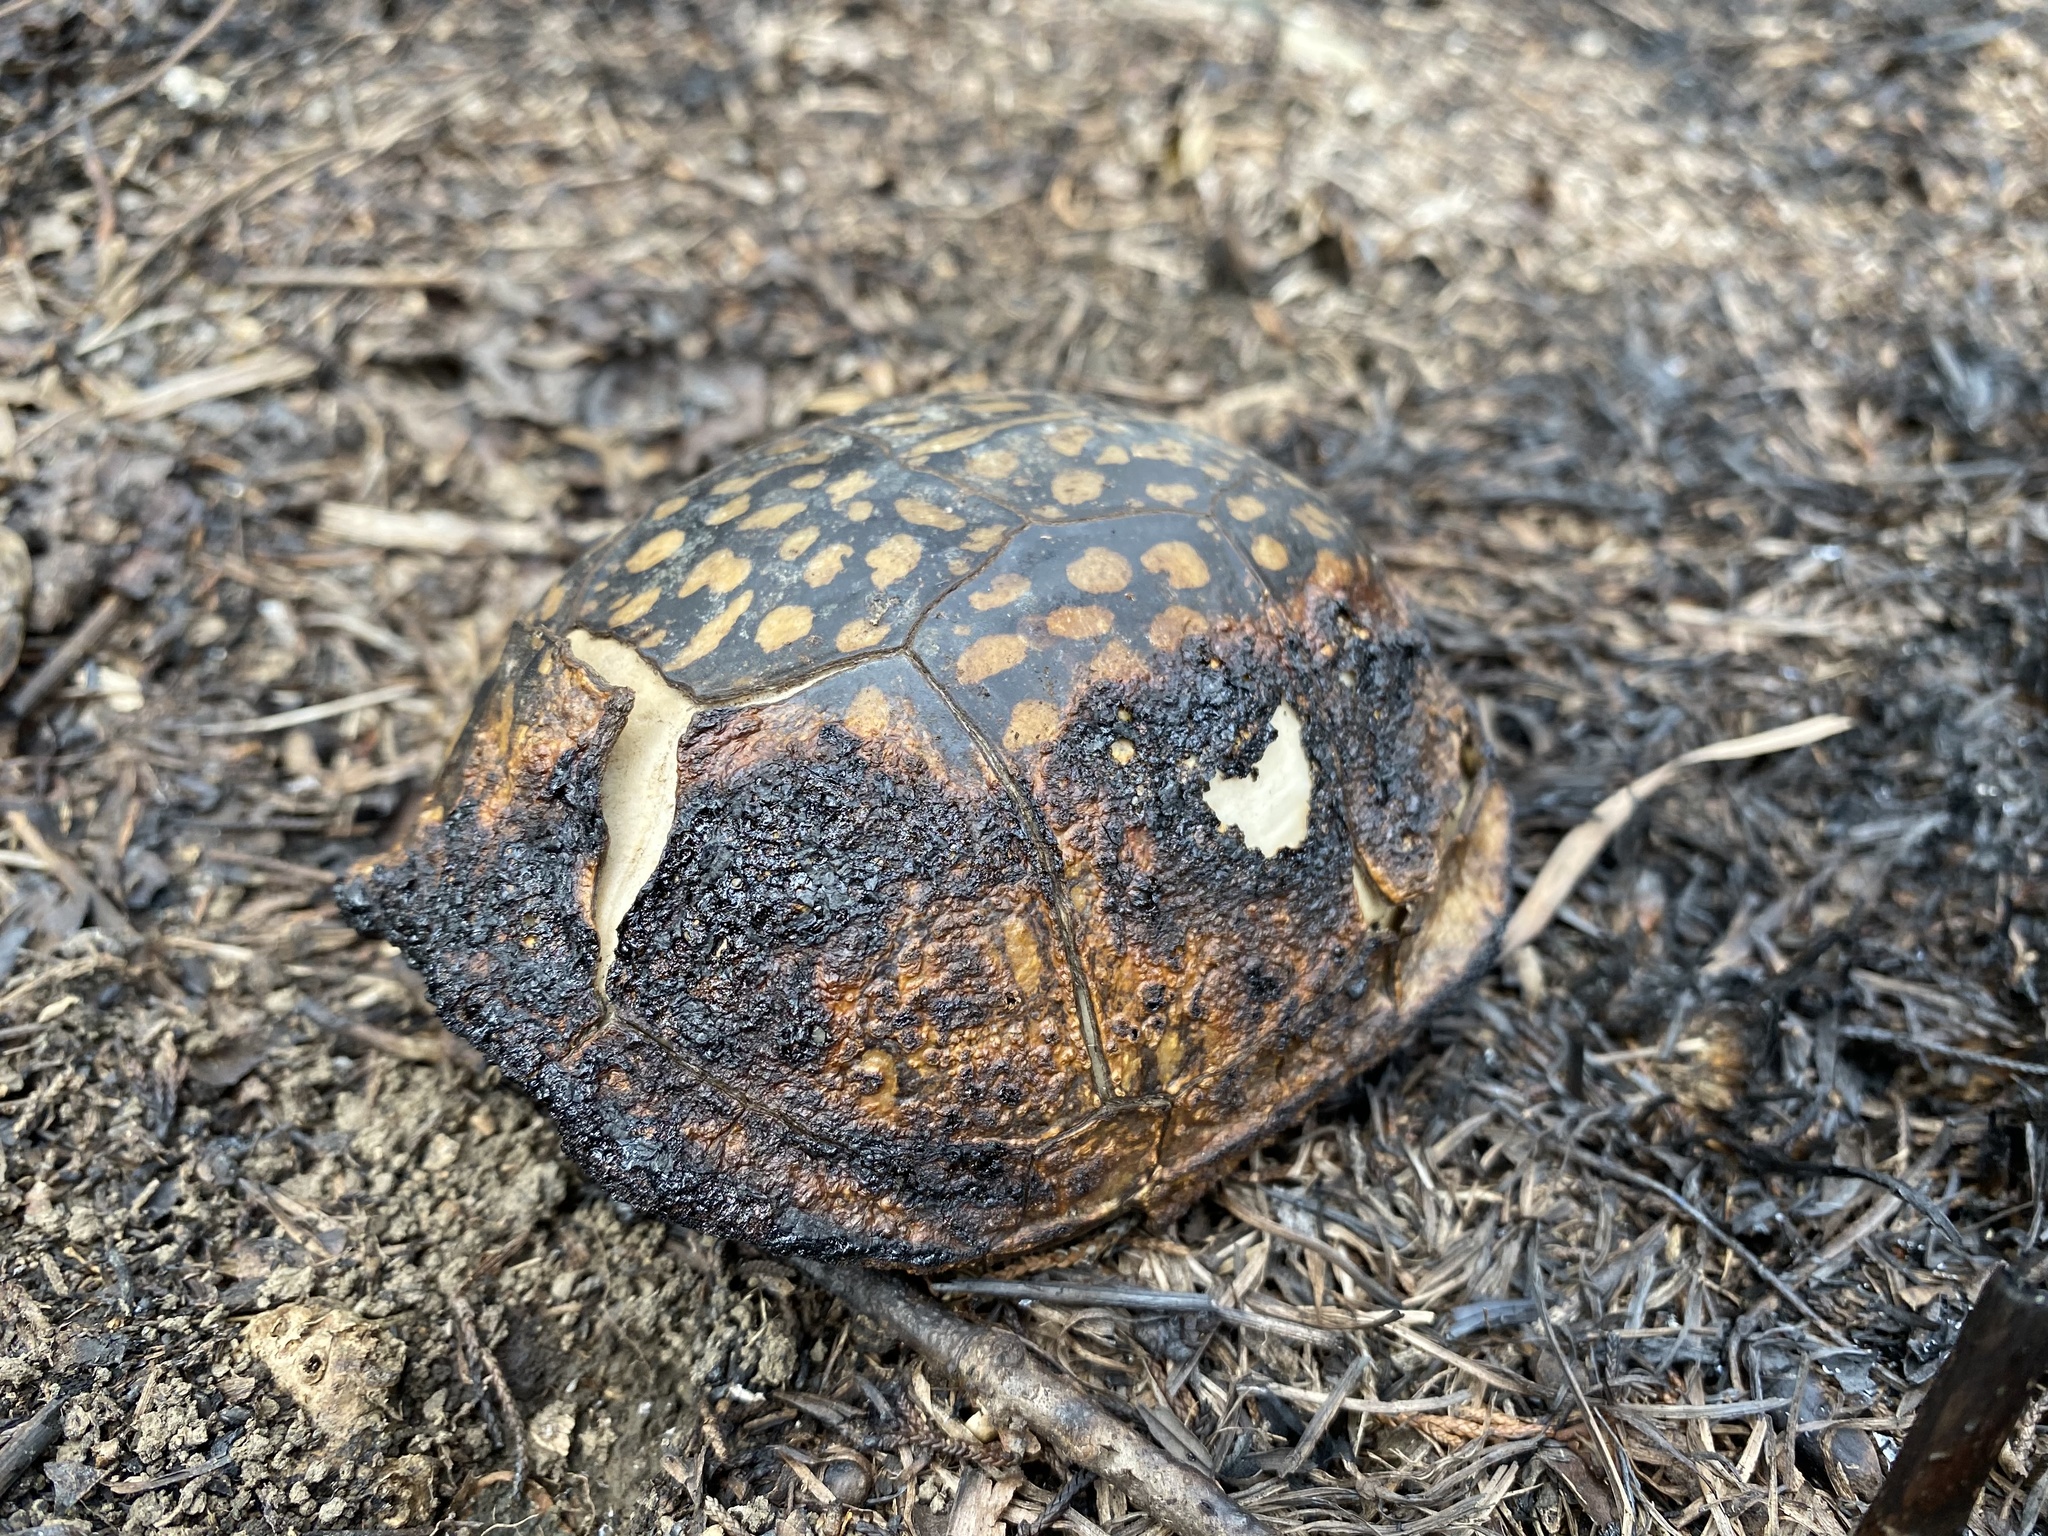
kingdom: Animalia
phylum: Chordata
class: Testudines
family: Emydidae
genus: Terrapene
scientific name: Terrapene carolina
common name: Common box turtle
